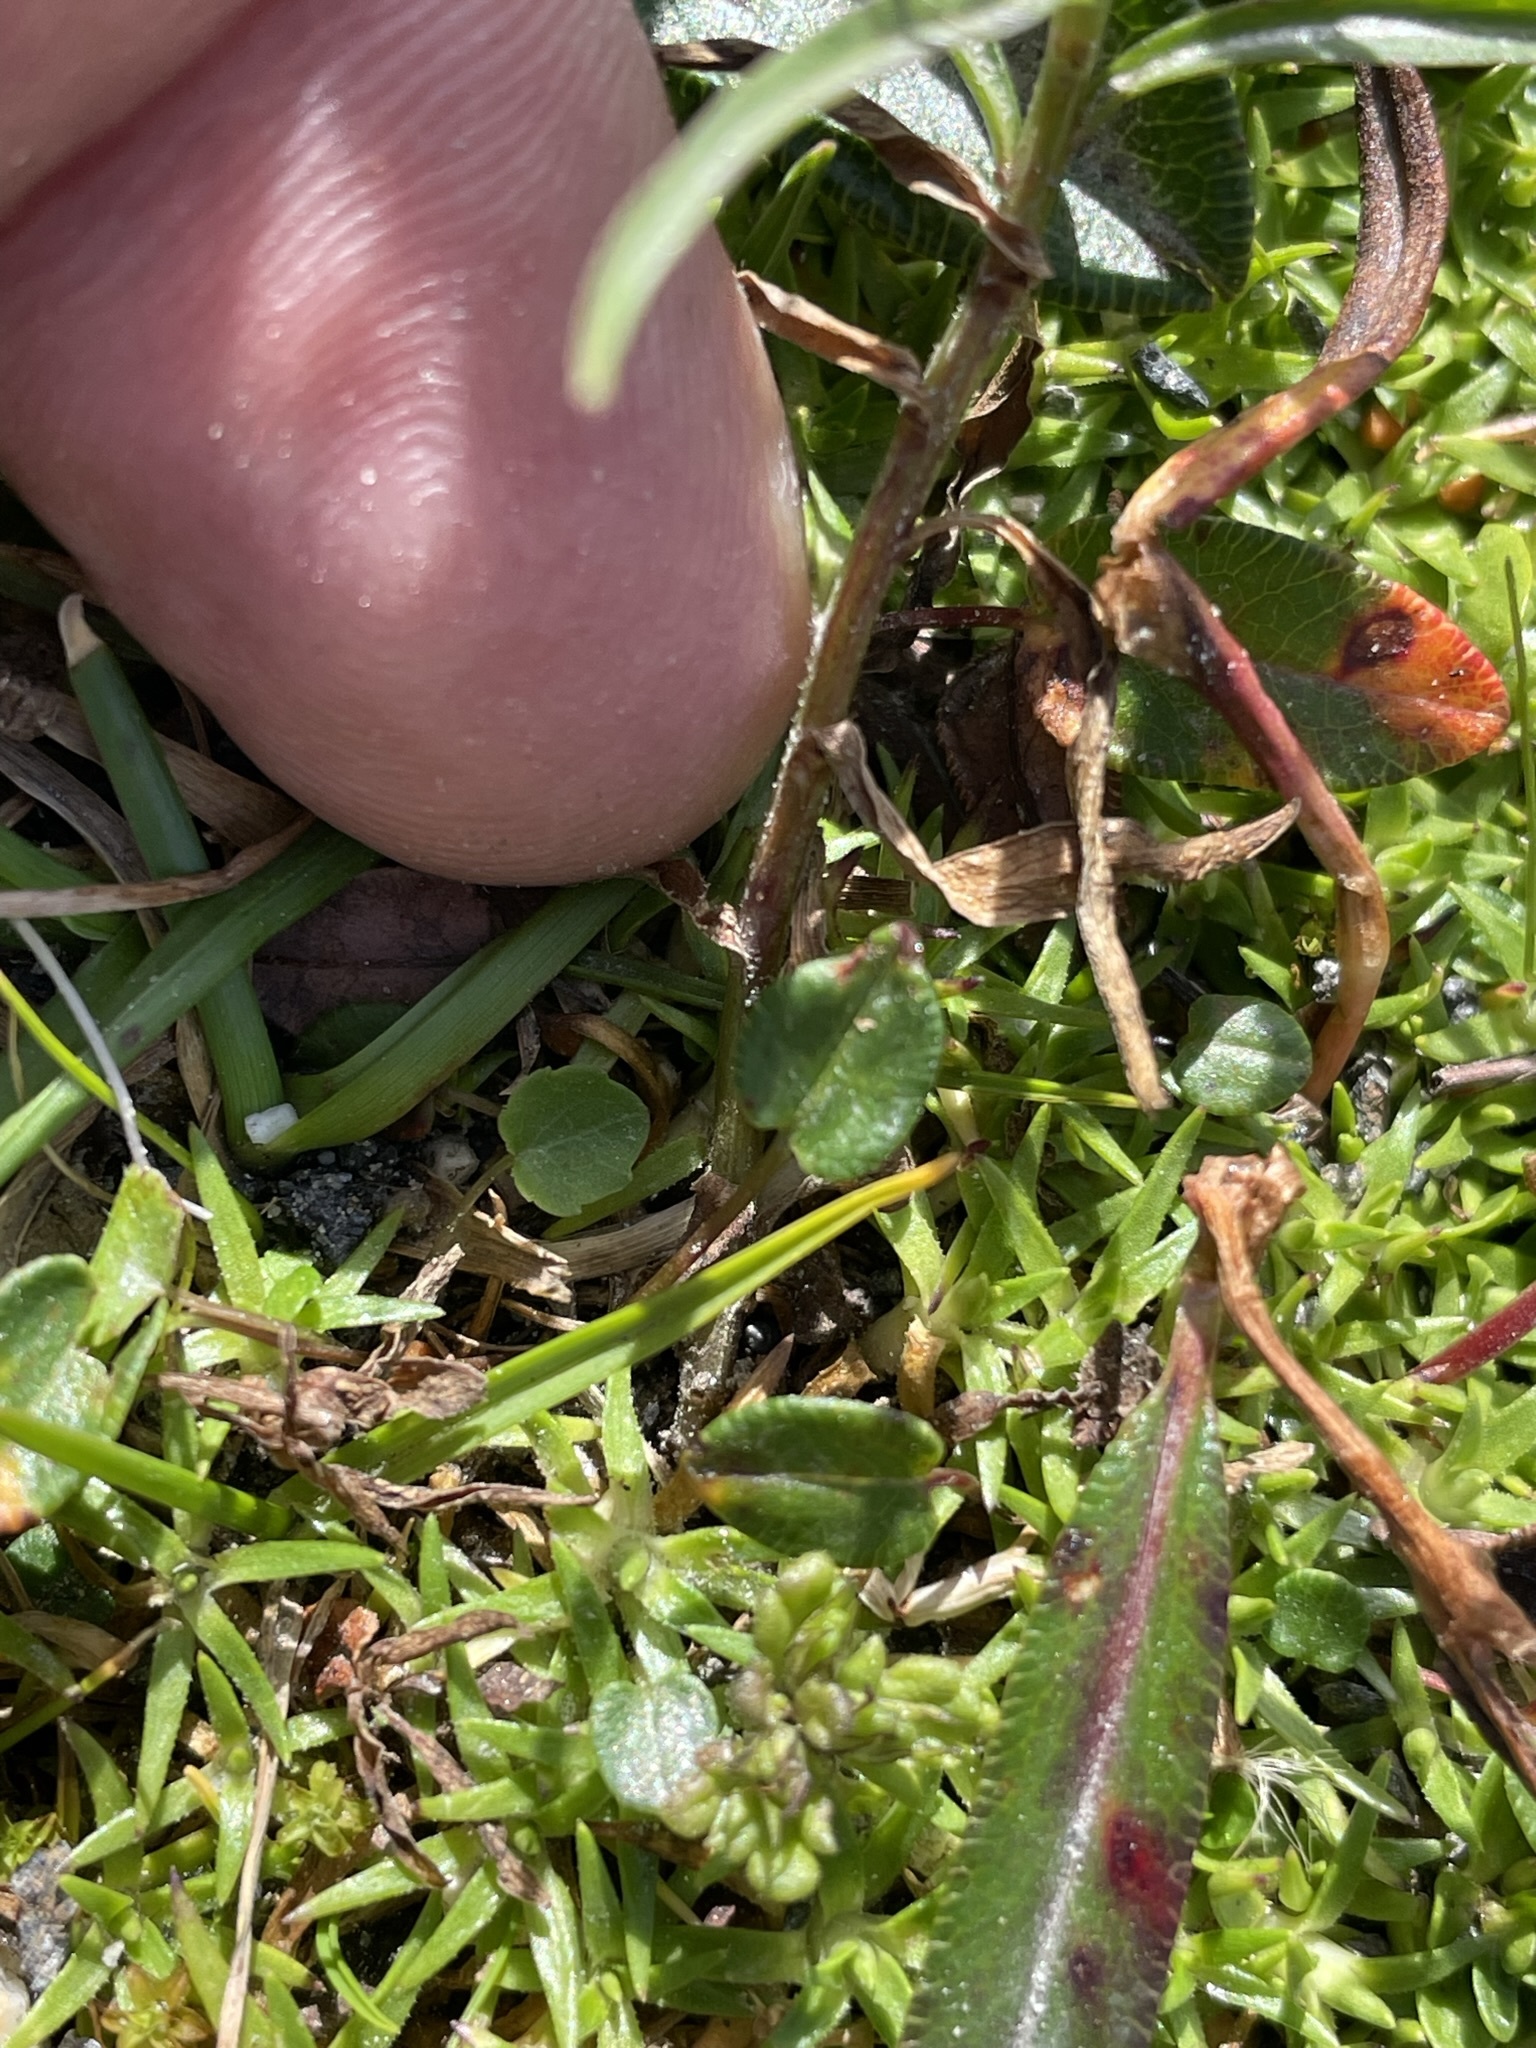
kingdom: Plantae
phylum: Tracheophyta
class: Magnoliopsida
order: Asterales
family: Campanulaceae
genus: Campanula
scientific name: Campanula scheuchzeri
